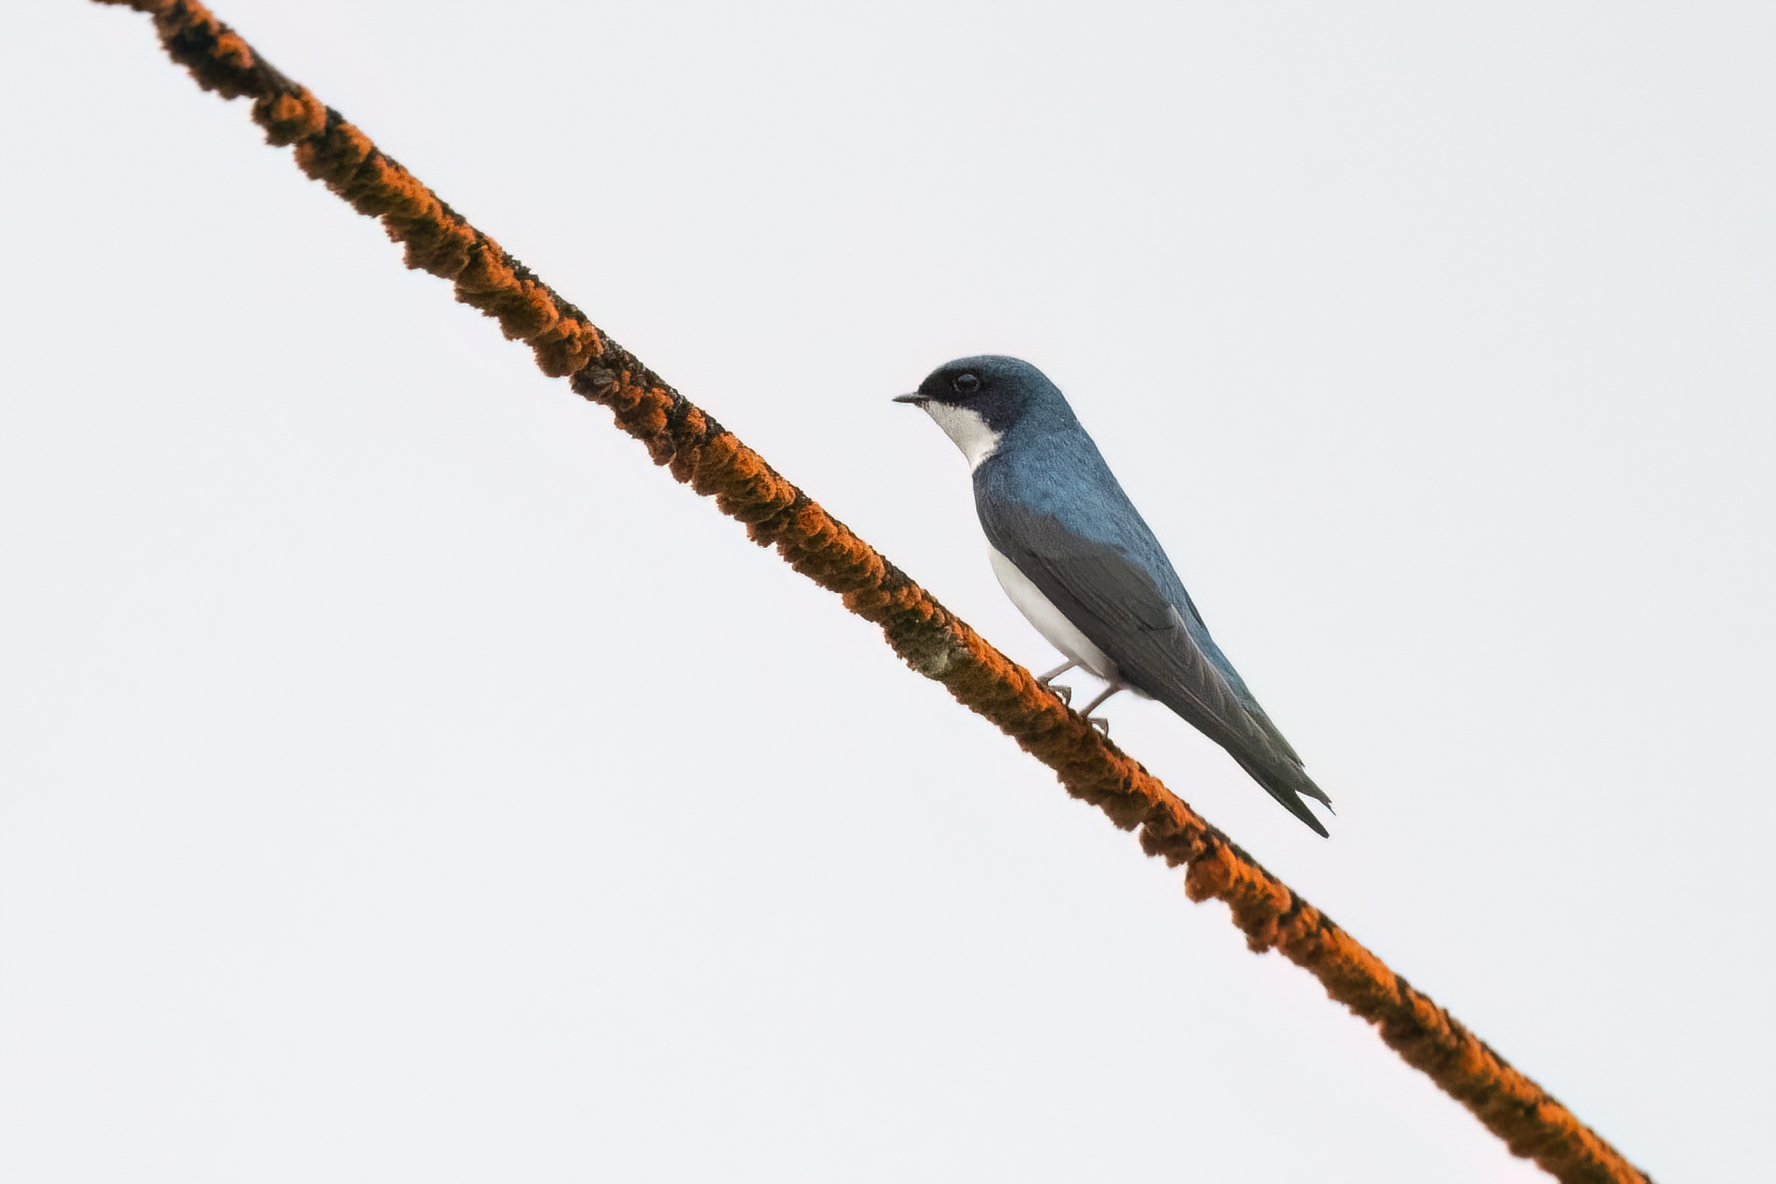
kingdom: Animalia
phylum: Chordata
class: Aves
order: Passeriformes
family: Hirundinidae
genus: Notiochelidon
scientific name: Notiochelidon cyanoleuca
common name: Blue-and-white swallow
